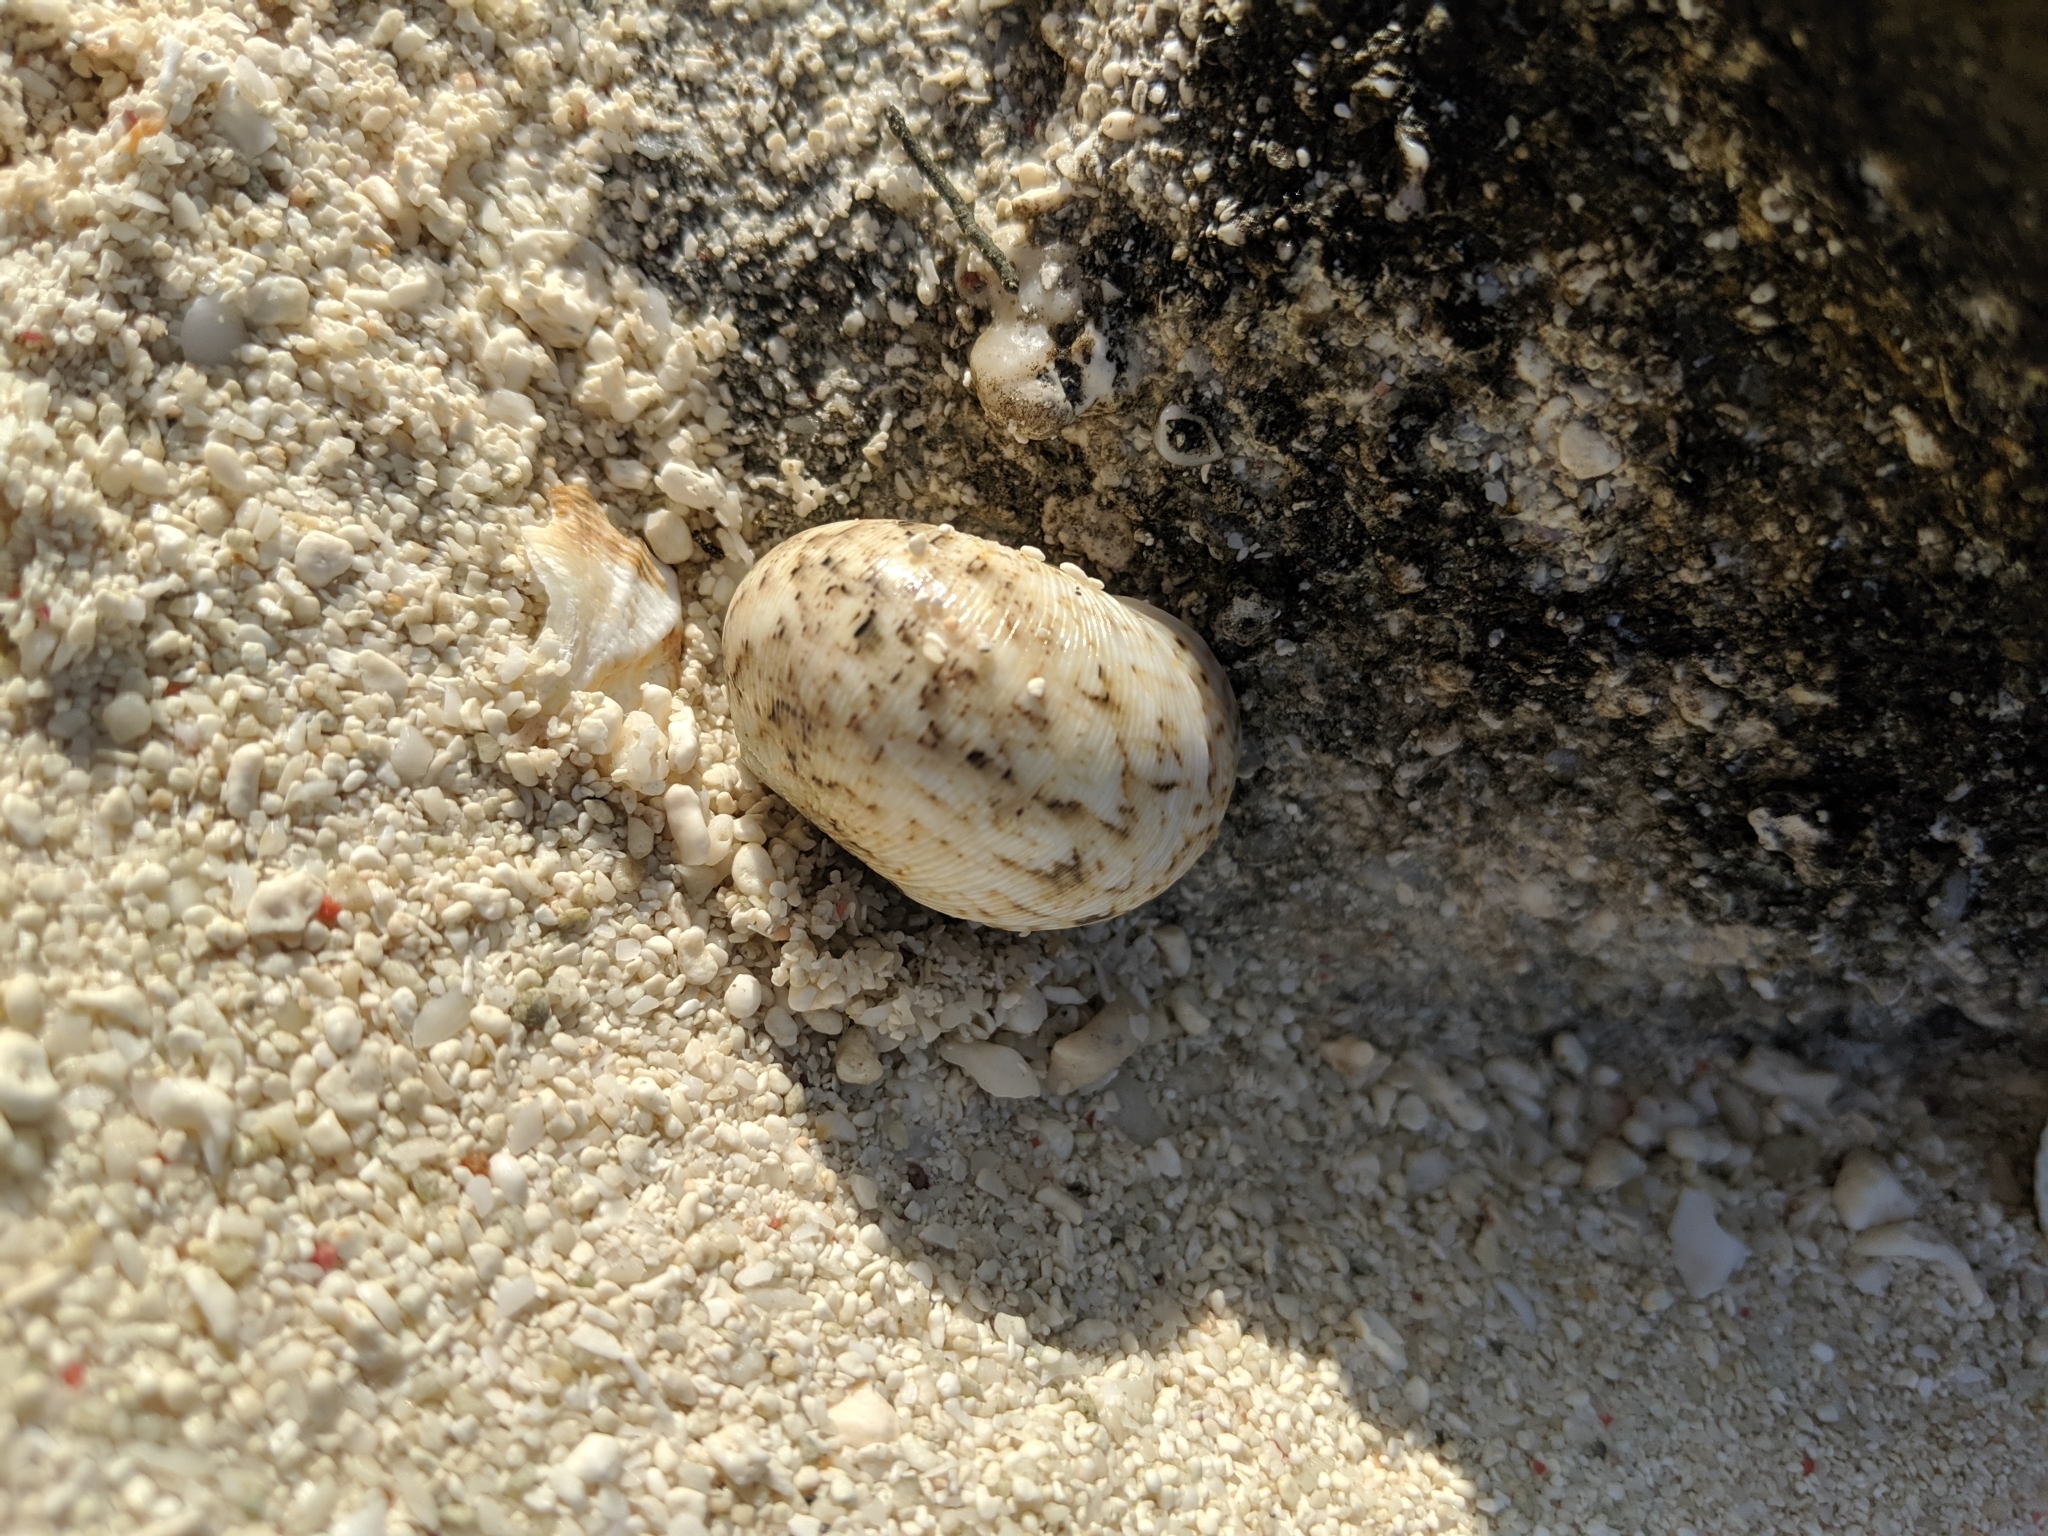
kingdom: Animalia
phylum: Mollusca
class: Gastropoda
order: Cycloneritida
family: Neritidae
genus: Nerita
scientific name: Nerita polita
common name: Polished nerite
